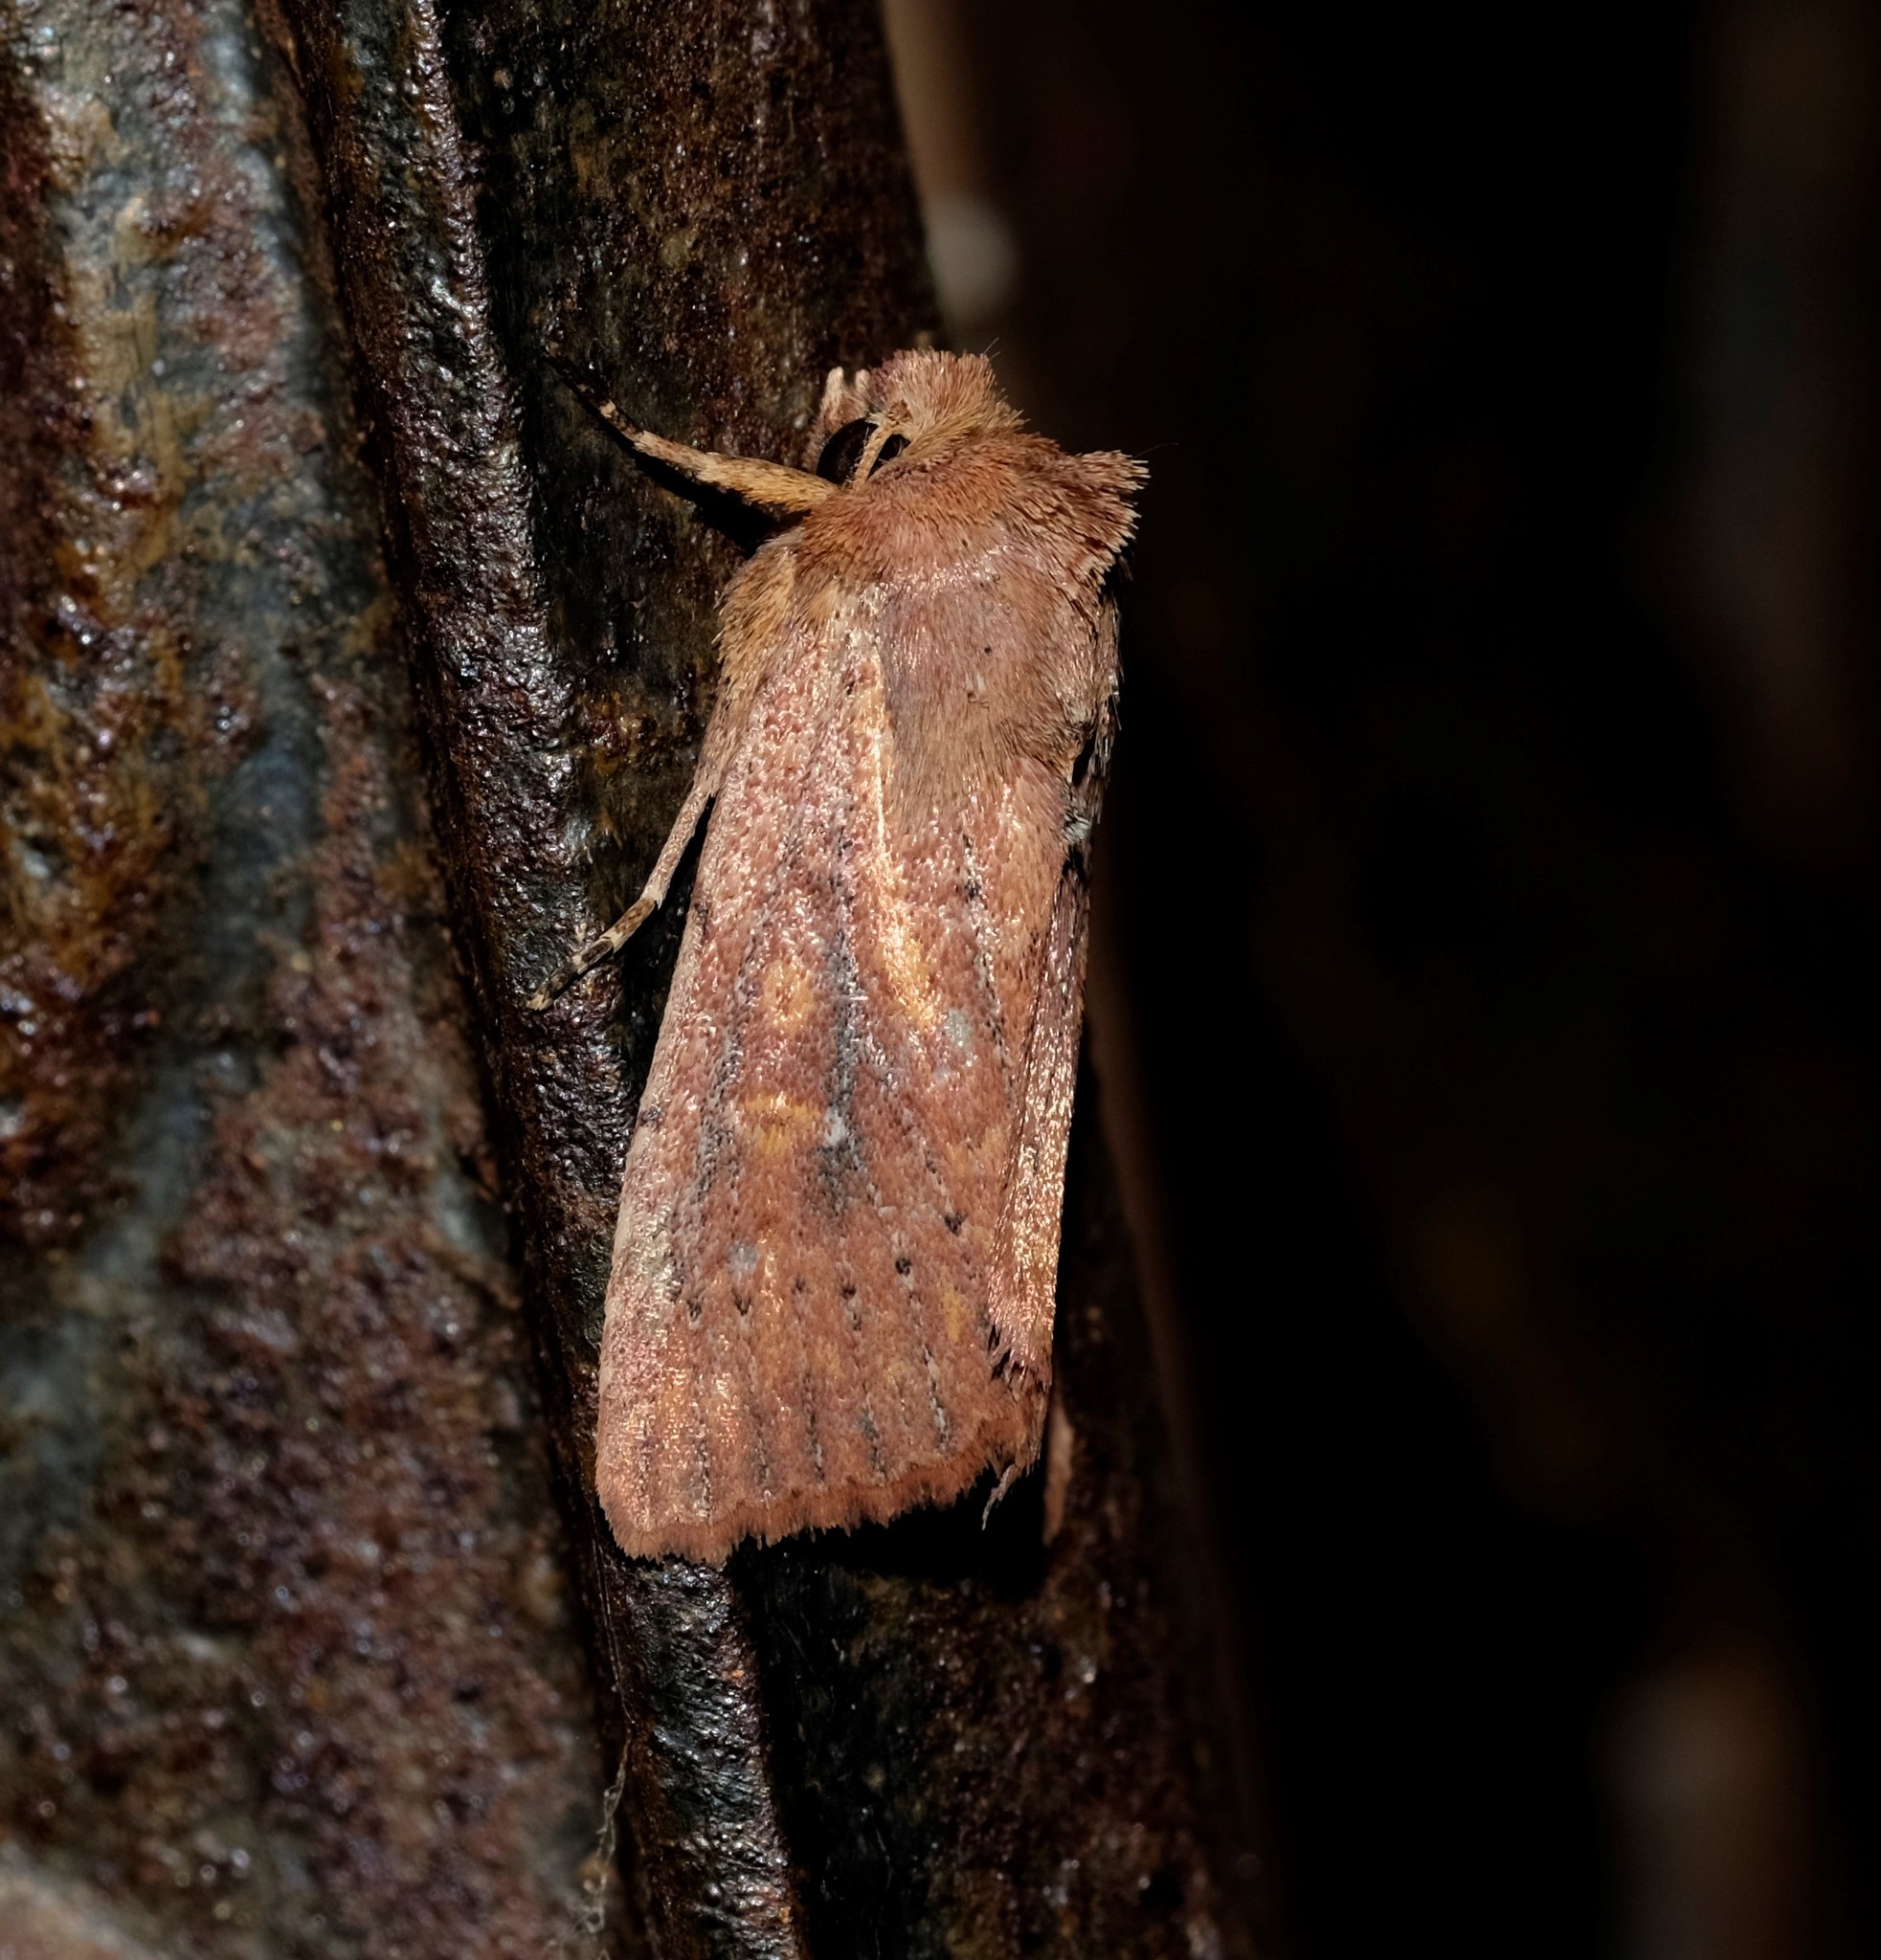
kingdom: Animalia
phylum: Arthropoda
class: Insecta
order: Lepidoptera
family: Noctuidae
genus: Dasygaster
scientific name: Dasygaster padockina
